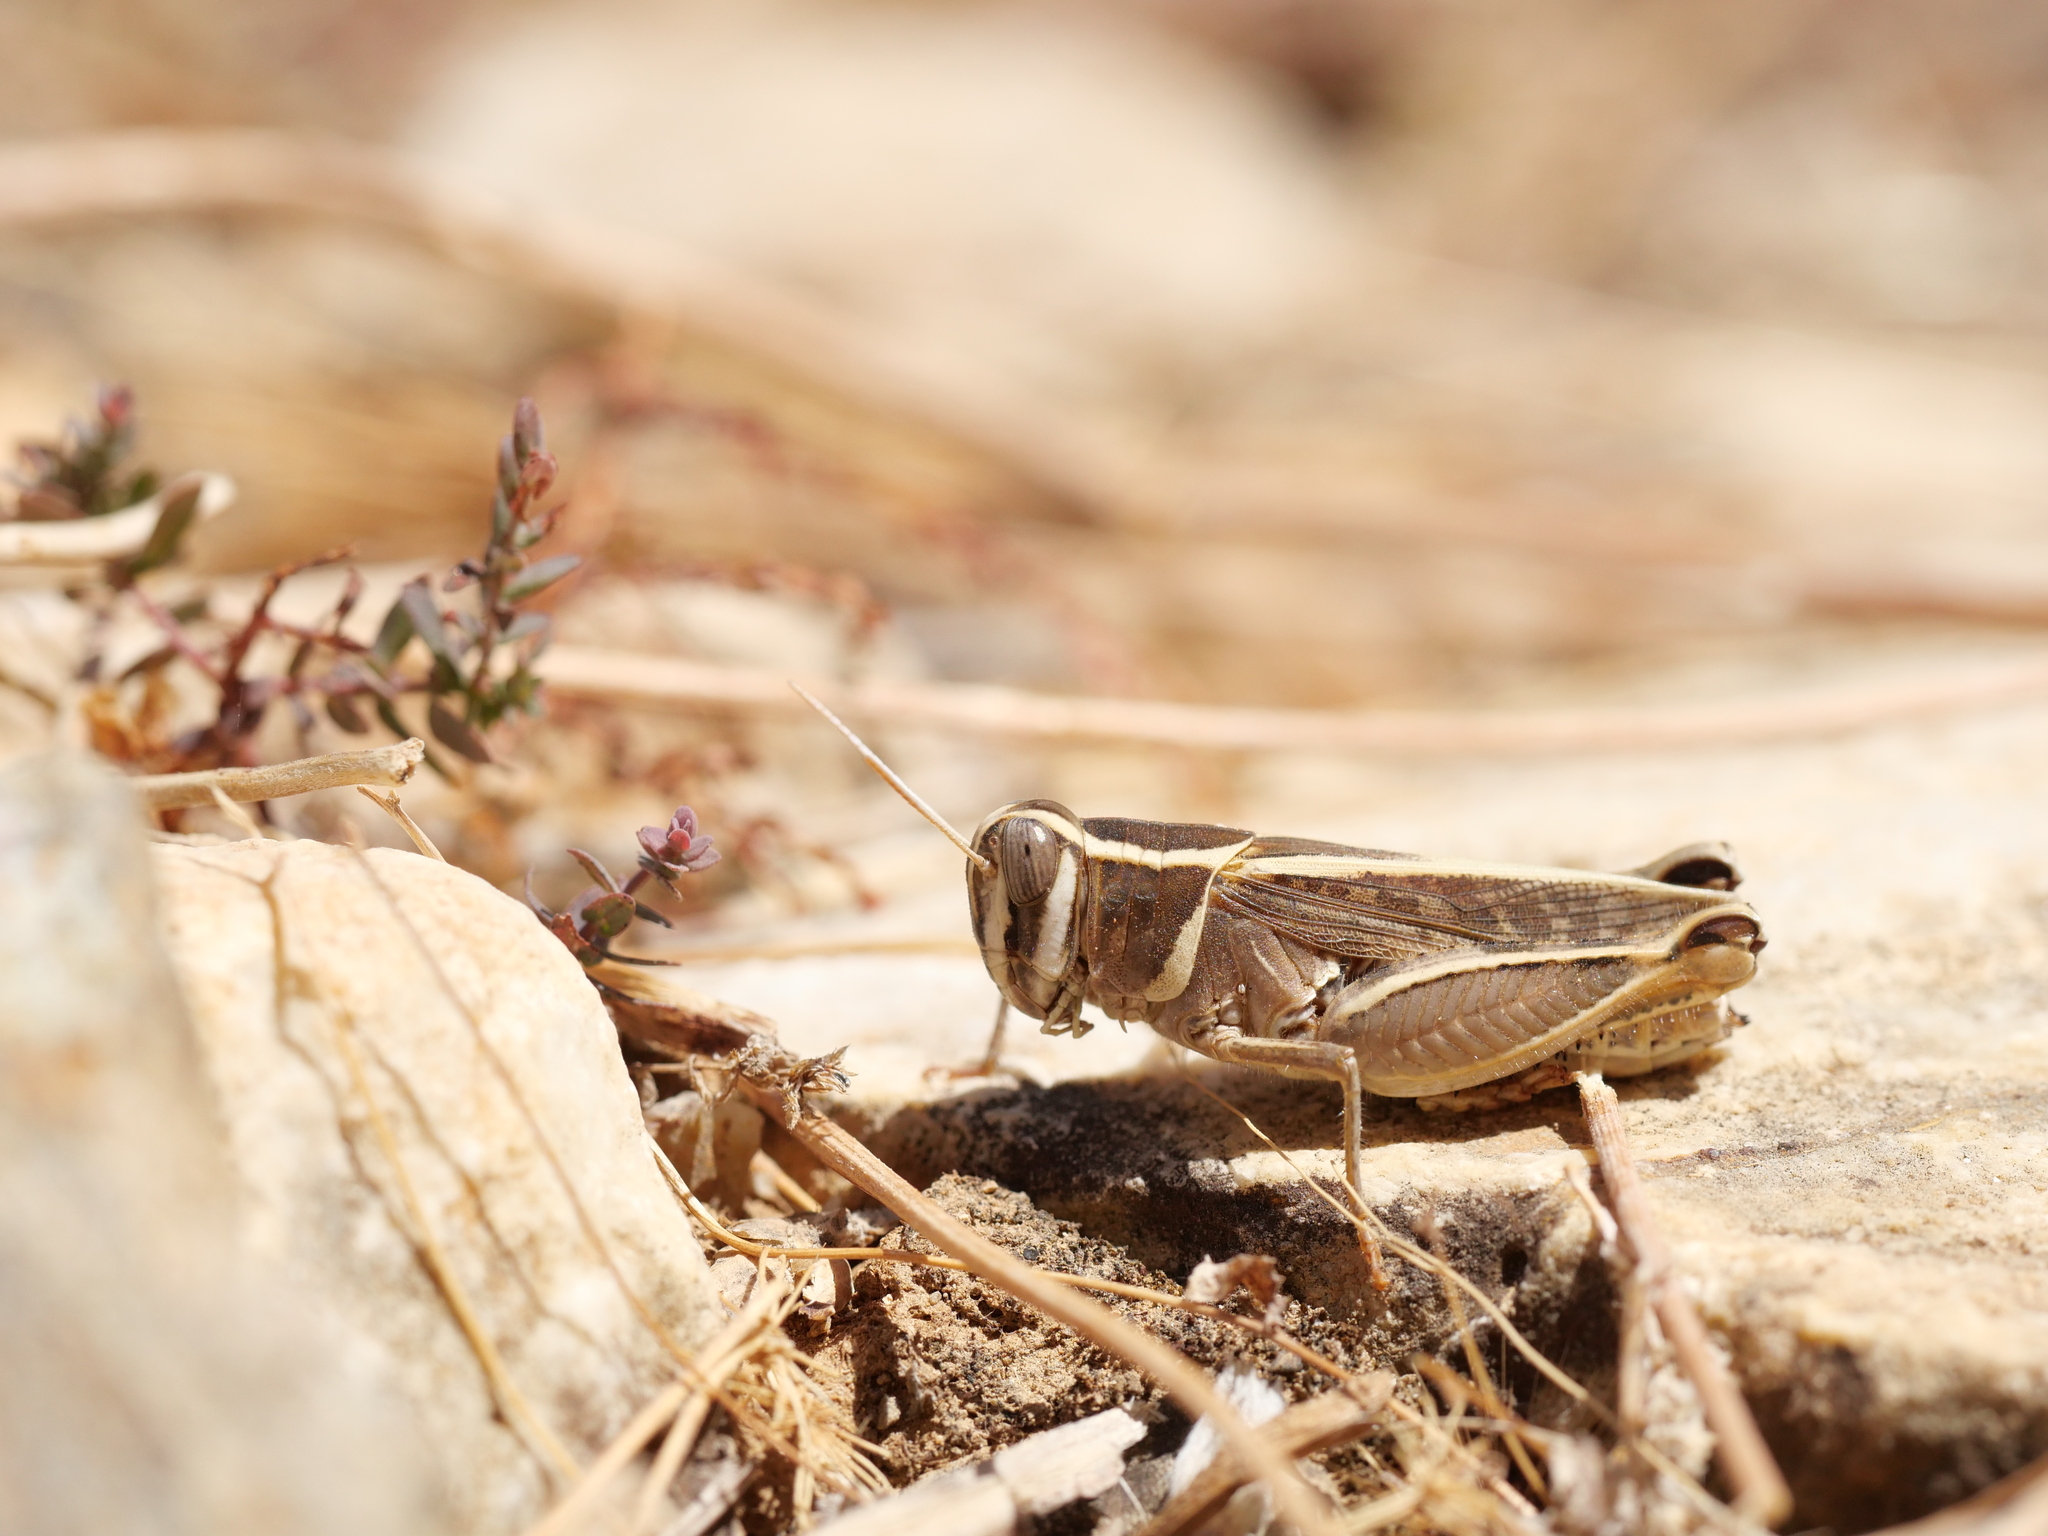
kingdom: Animalia
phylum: Arthropoda
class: Insecta
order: Orthoptera
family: Acrididae
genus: Calliptamus
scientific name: Calliptamus
